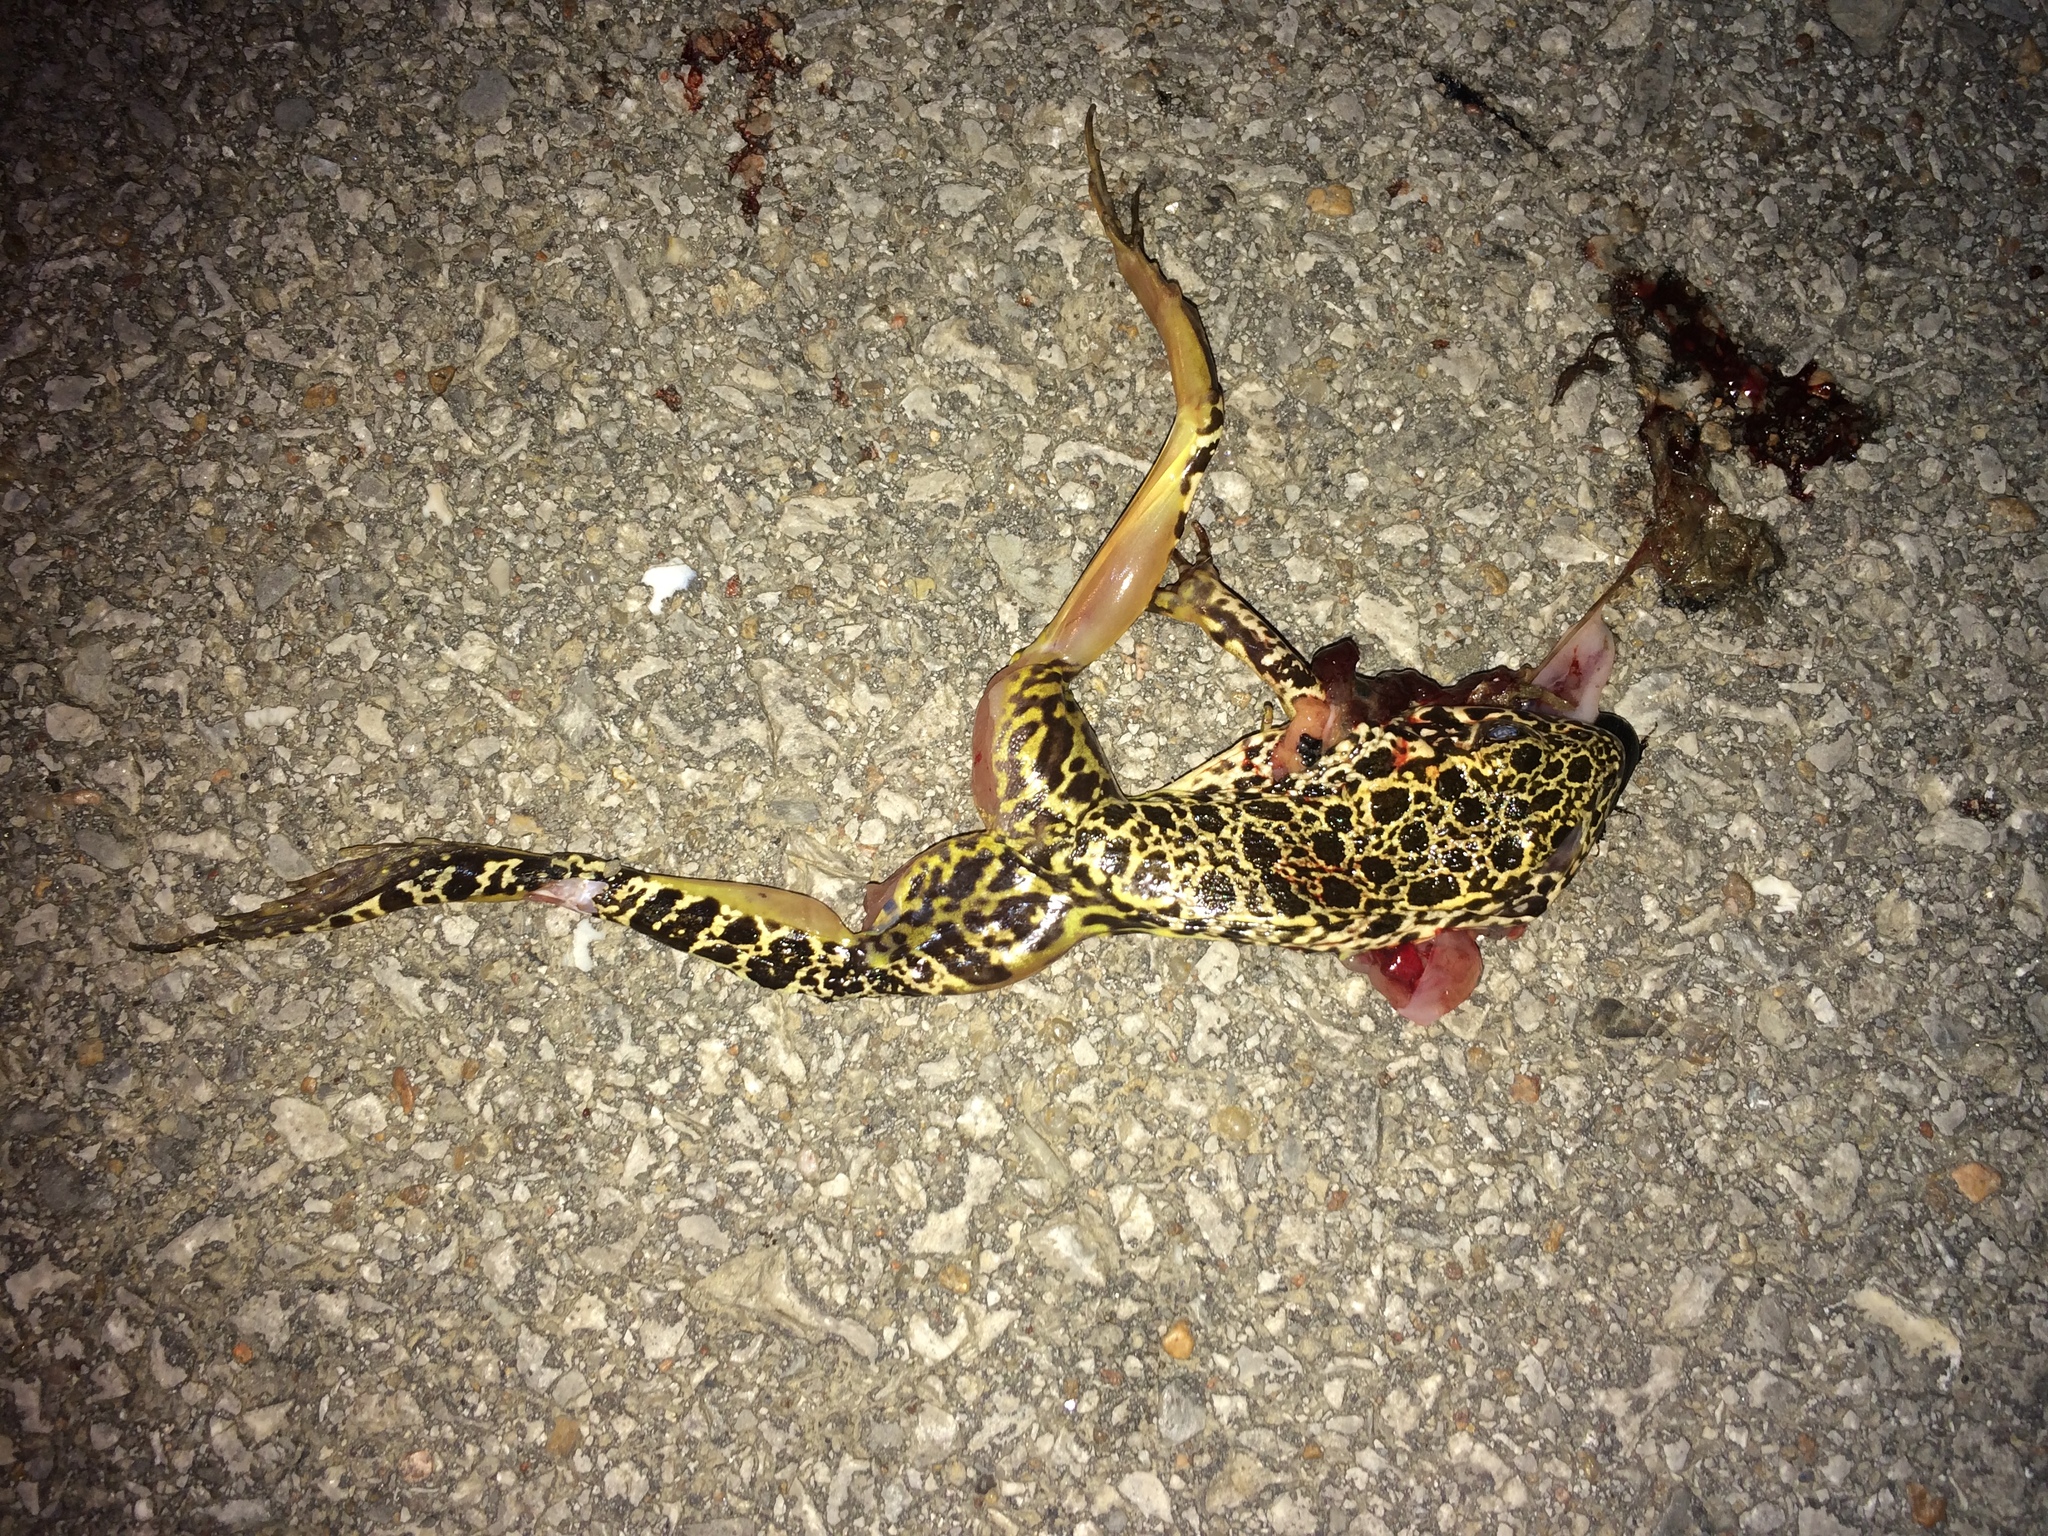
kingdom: Animalia
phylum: Chordata
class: Amphibia
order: Anura
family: Ranidae
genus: Lithobates
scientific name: Lithobates areolatus
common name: Crawfish frog
